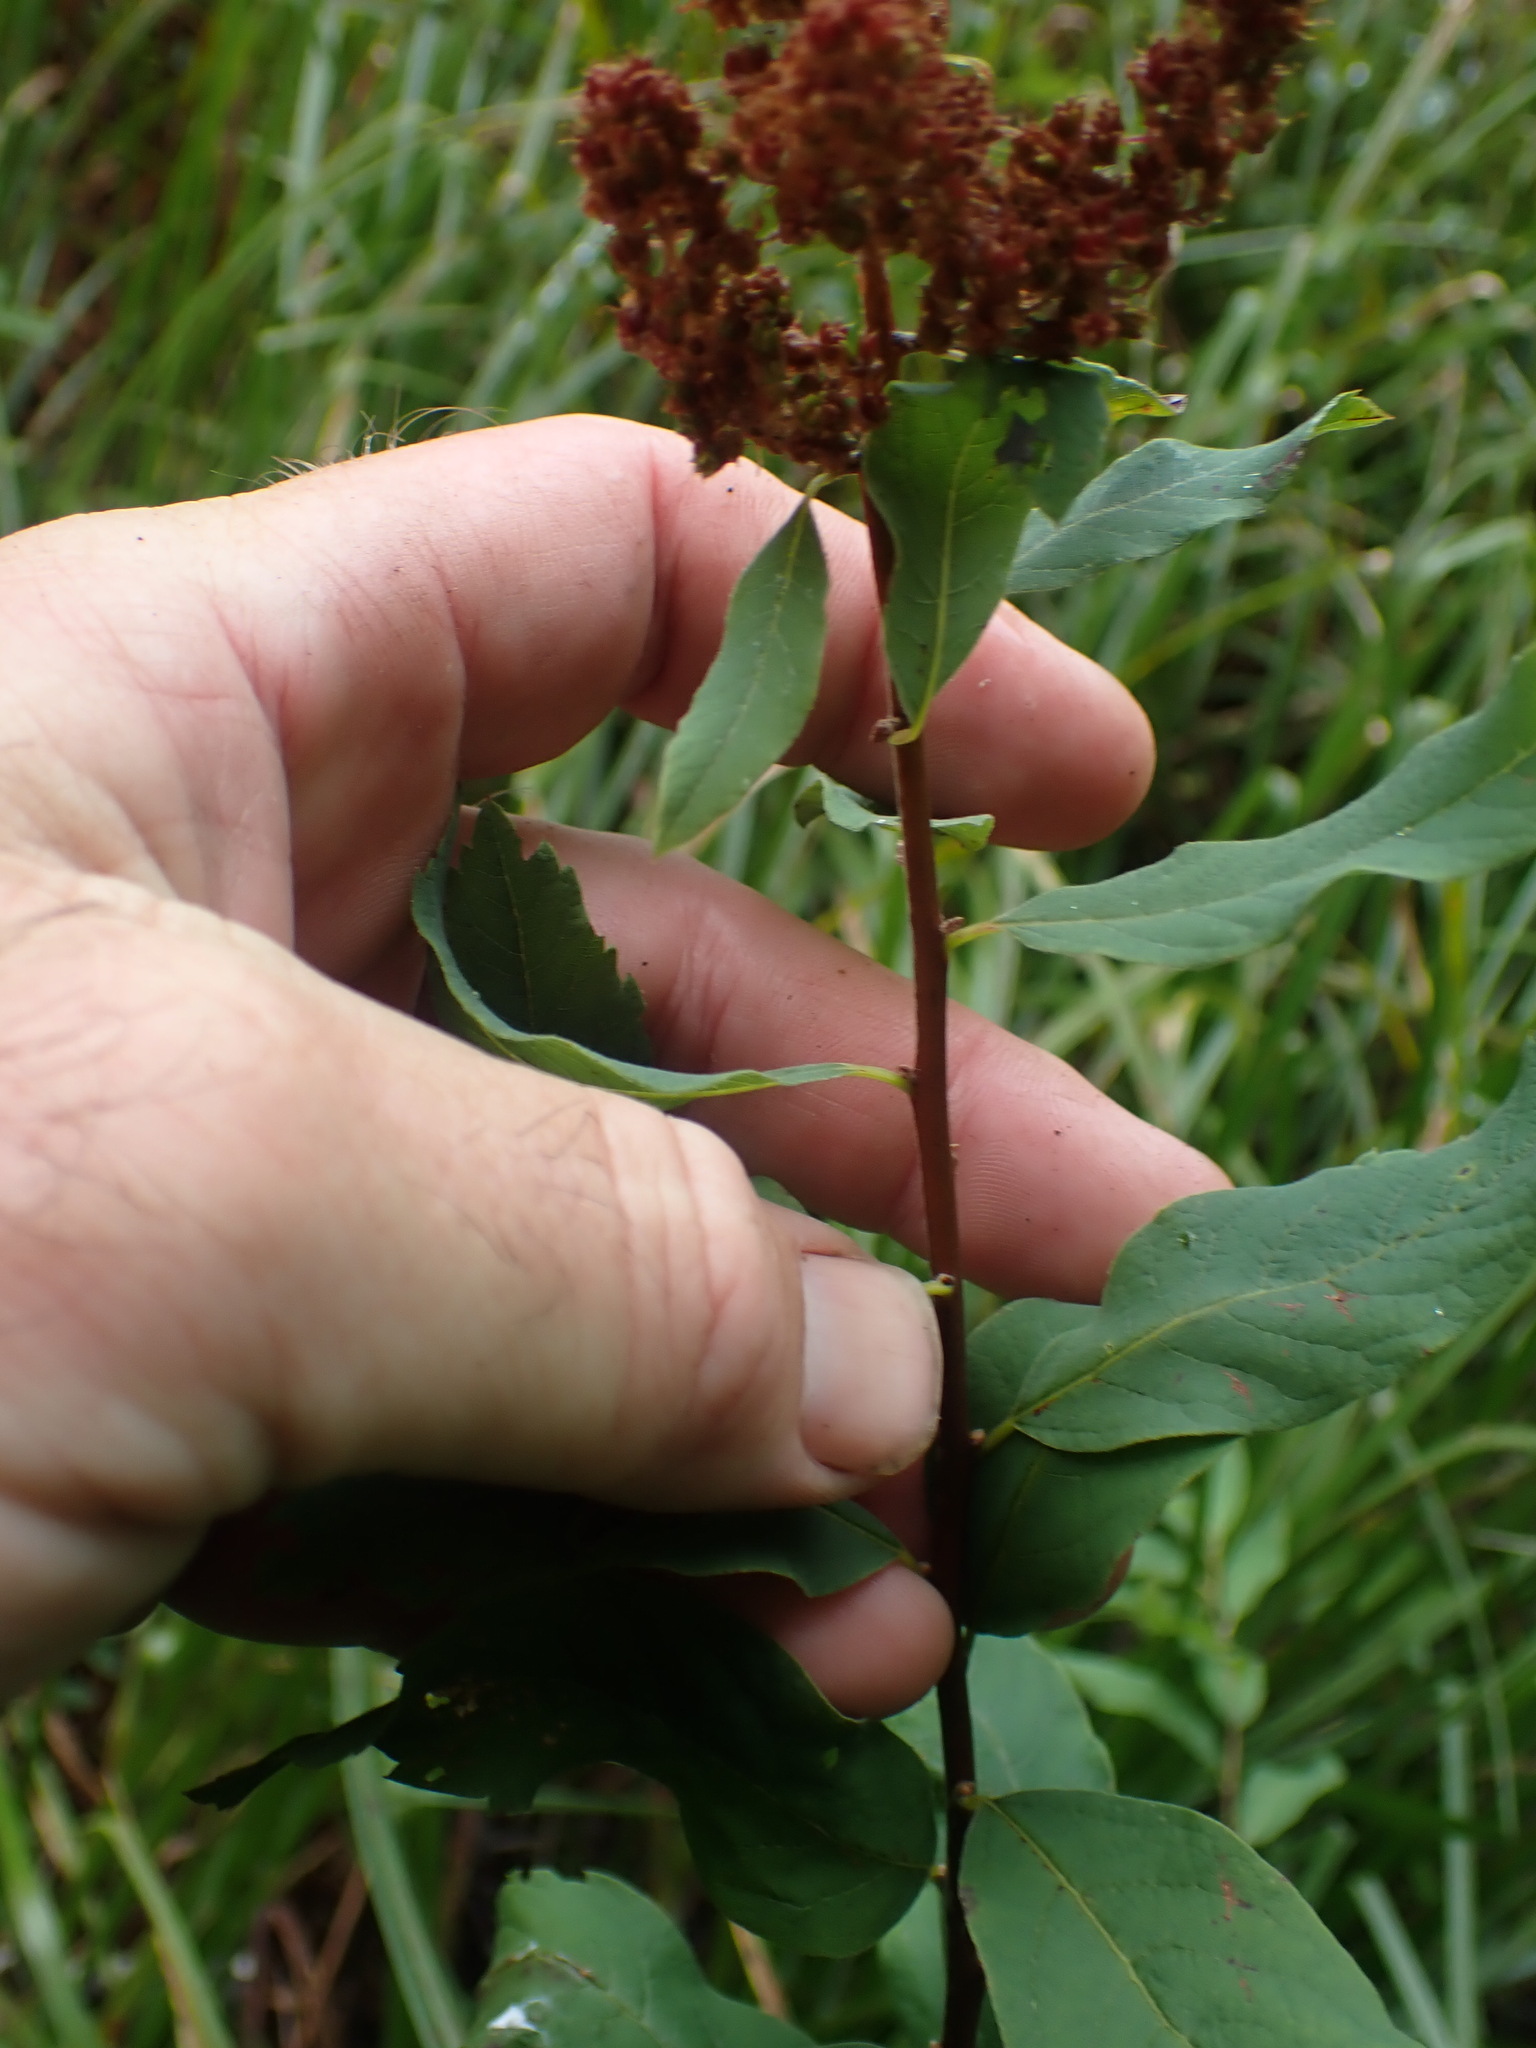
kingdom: Plantae
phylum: Tracheophyta
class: Magnoliopsida
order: Rosales
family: Rosaceae
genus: Spiraea
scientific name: Spiraea douglasii
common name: Steeplebush
